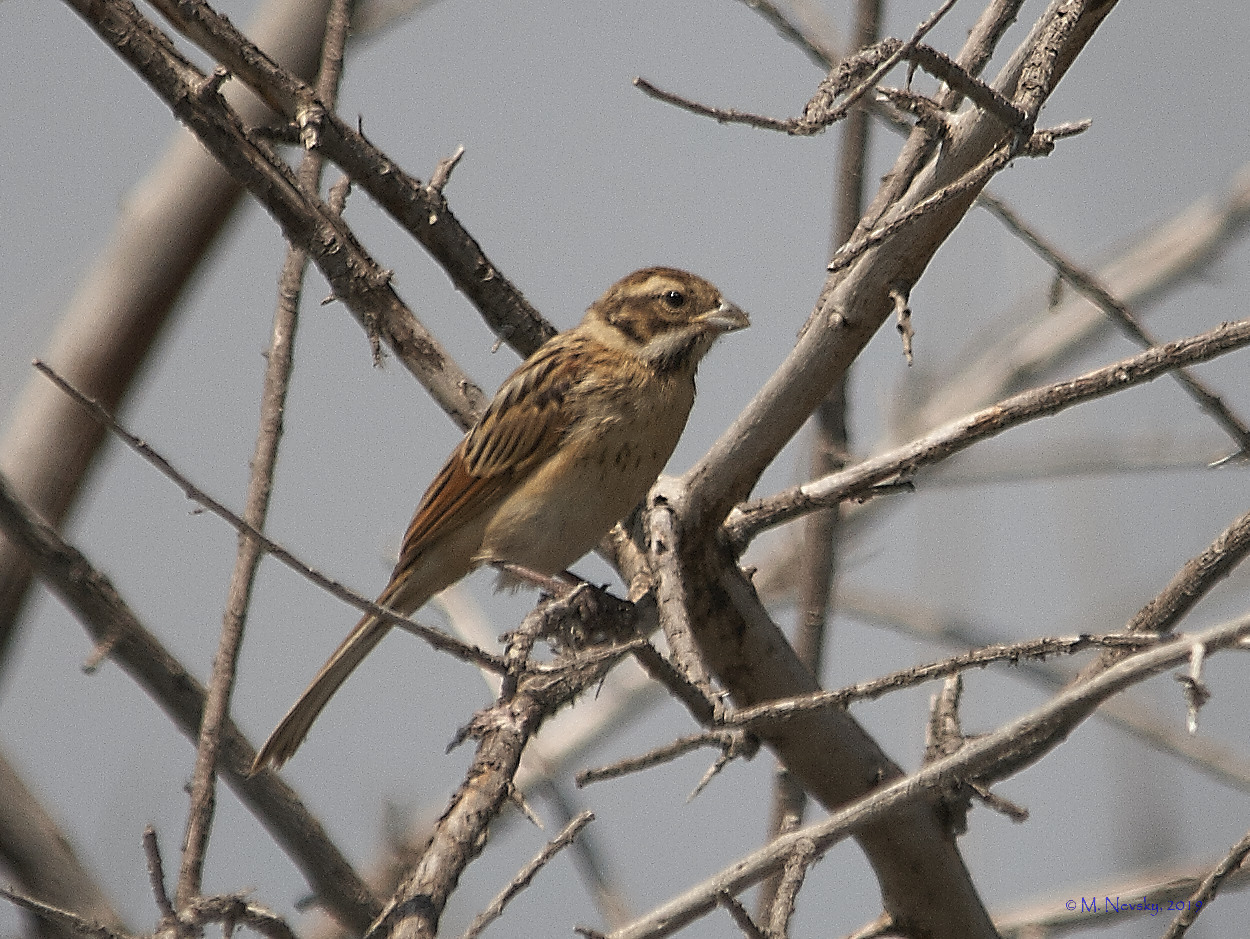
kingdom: Animalia
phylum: Chordata
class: Aves
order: Passeriformes
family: Emberizidae
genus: Emberiza
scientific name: Emberiza schoeniclus
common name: Reed bunting
